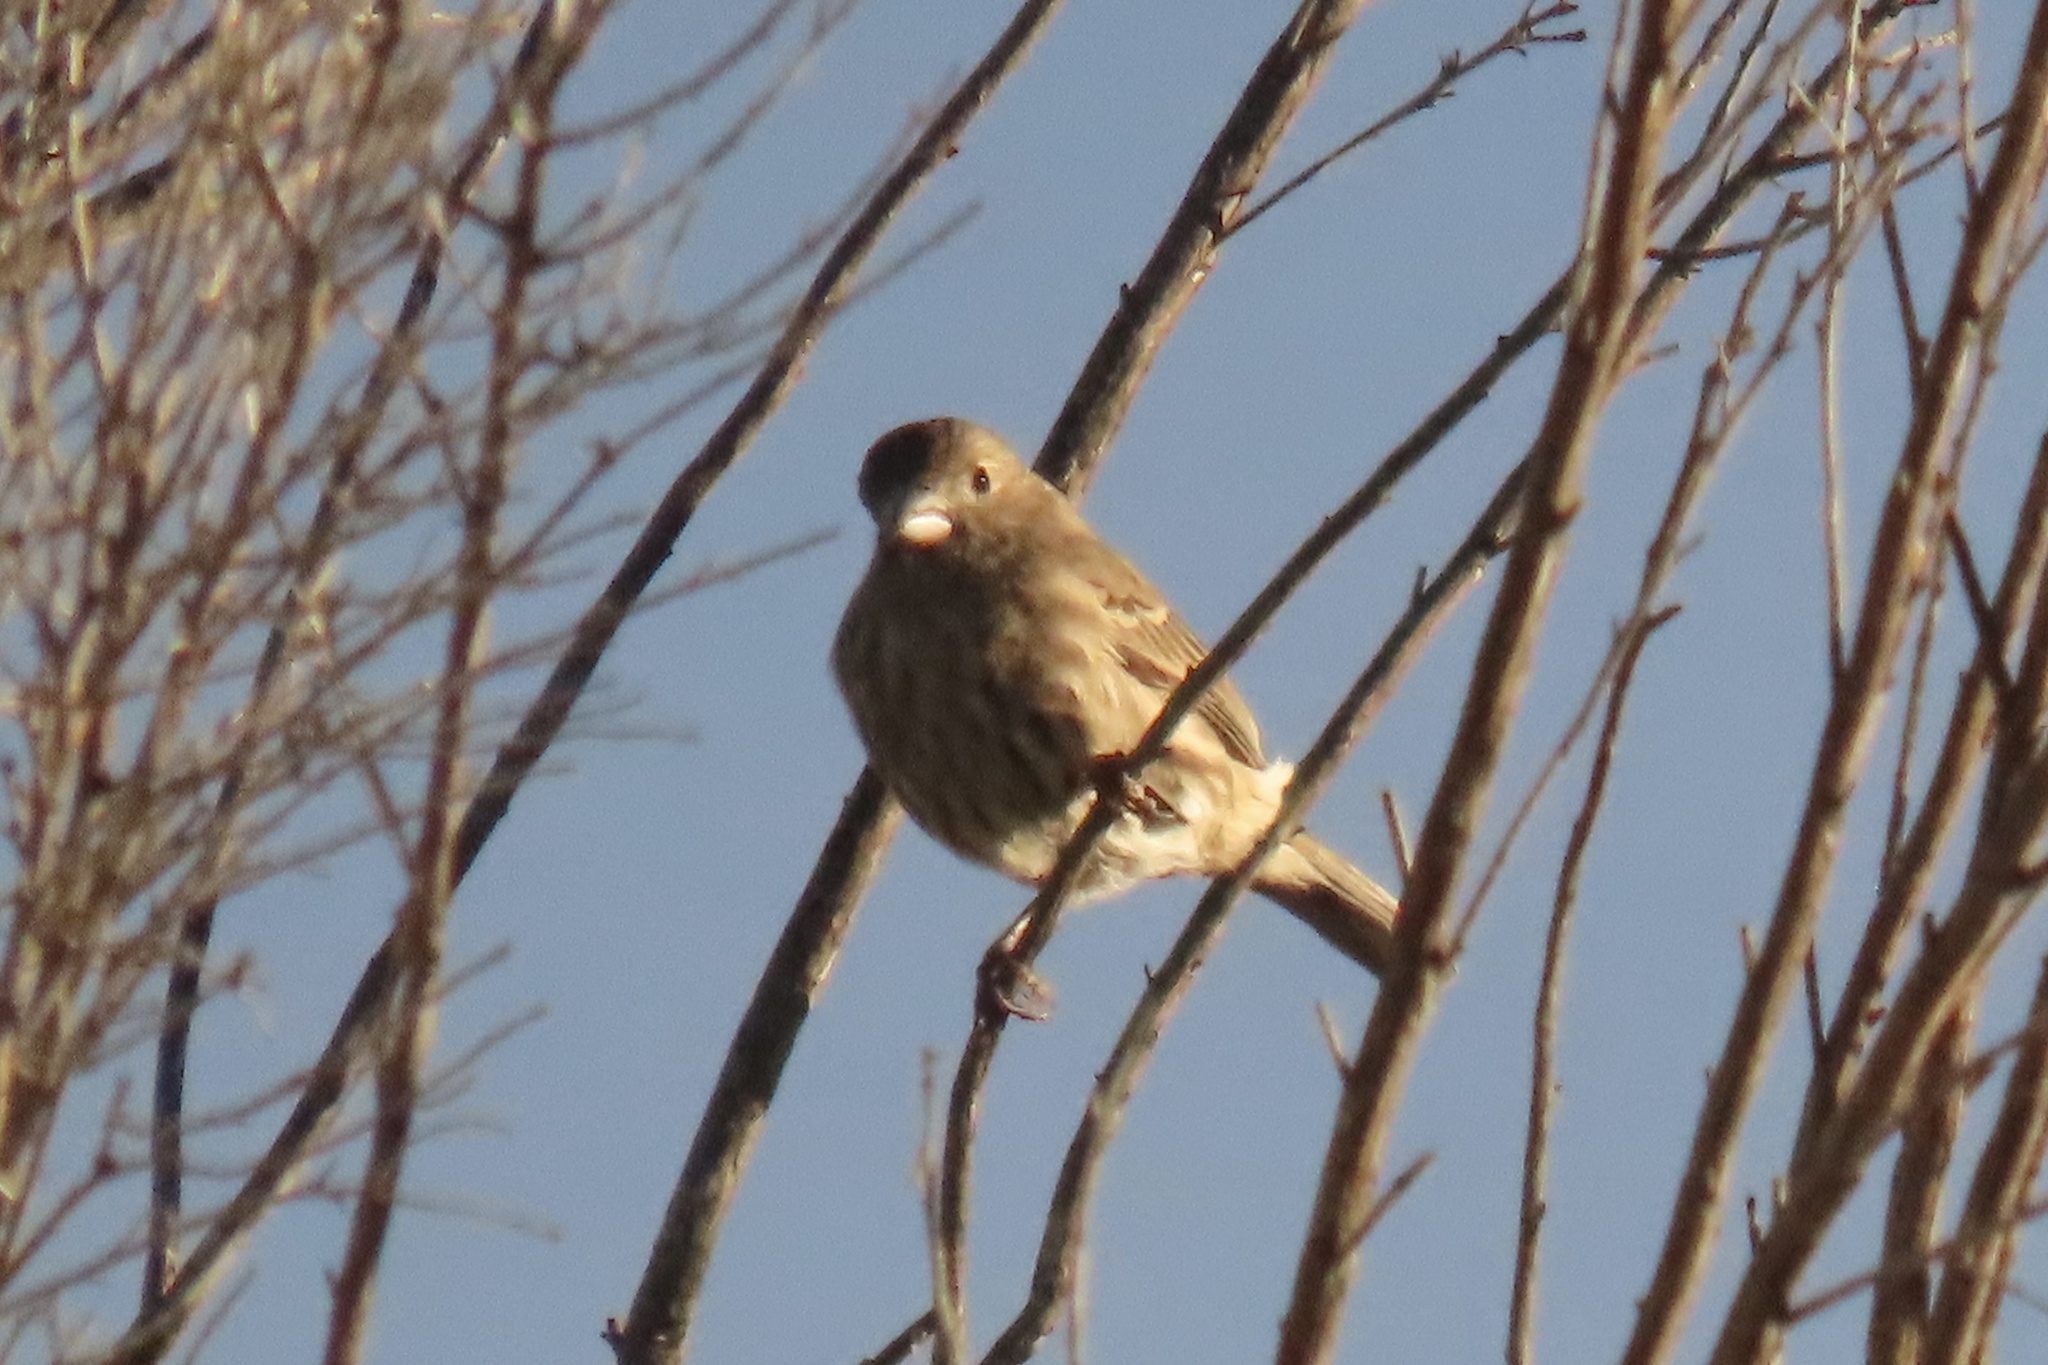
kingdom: Animalia
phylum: Chordata
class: Aves
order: Passeriformes
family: Fringillidae
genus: Haemorhous
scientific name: Haemorhous mexicanus
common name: House finch
